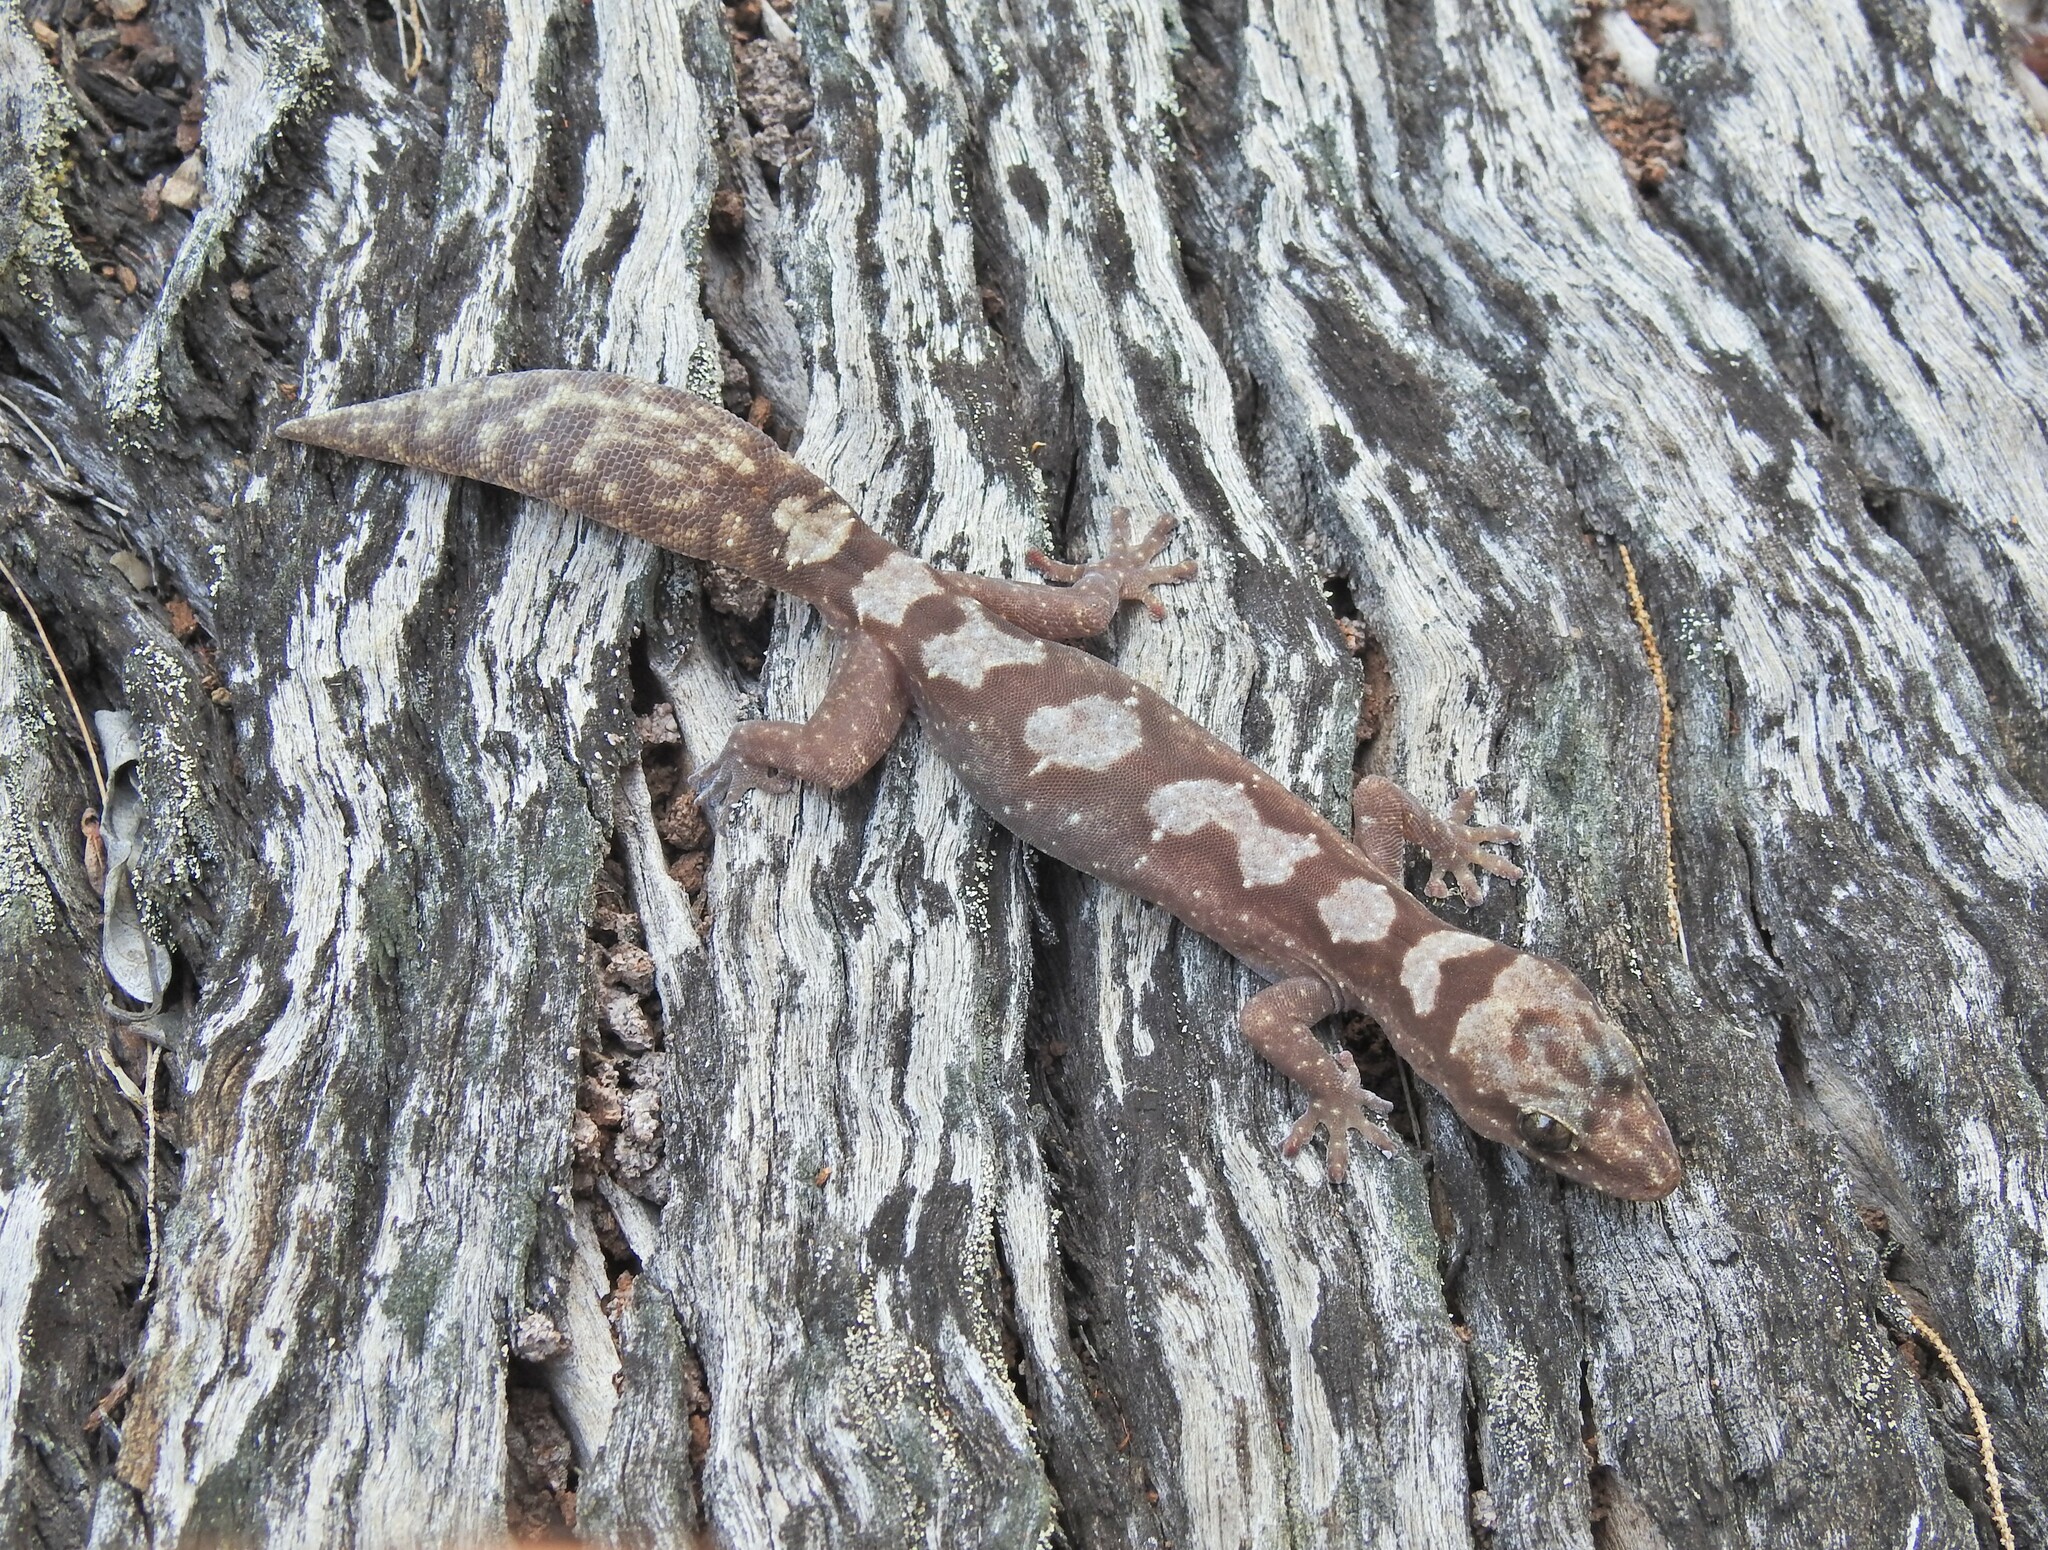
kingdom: Animalia
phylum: Chordata
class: Squamata
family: Diplodactylidae
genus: Nebulifera
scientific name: Nebulifera robusta
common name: Robust gecko
